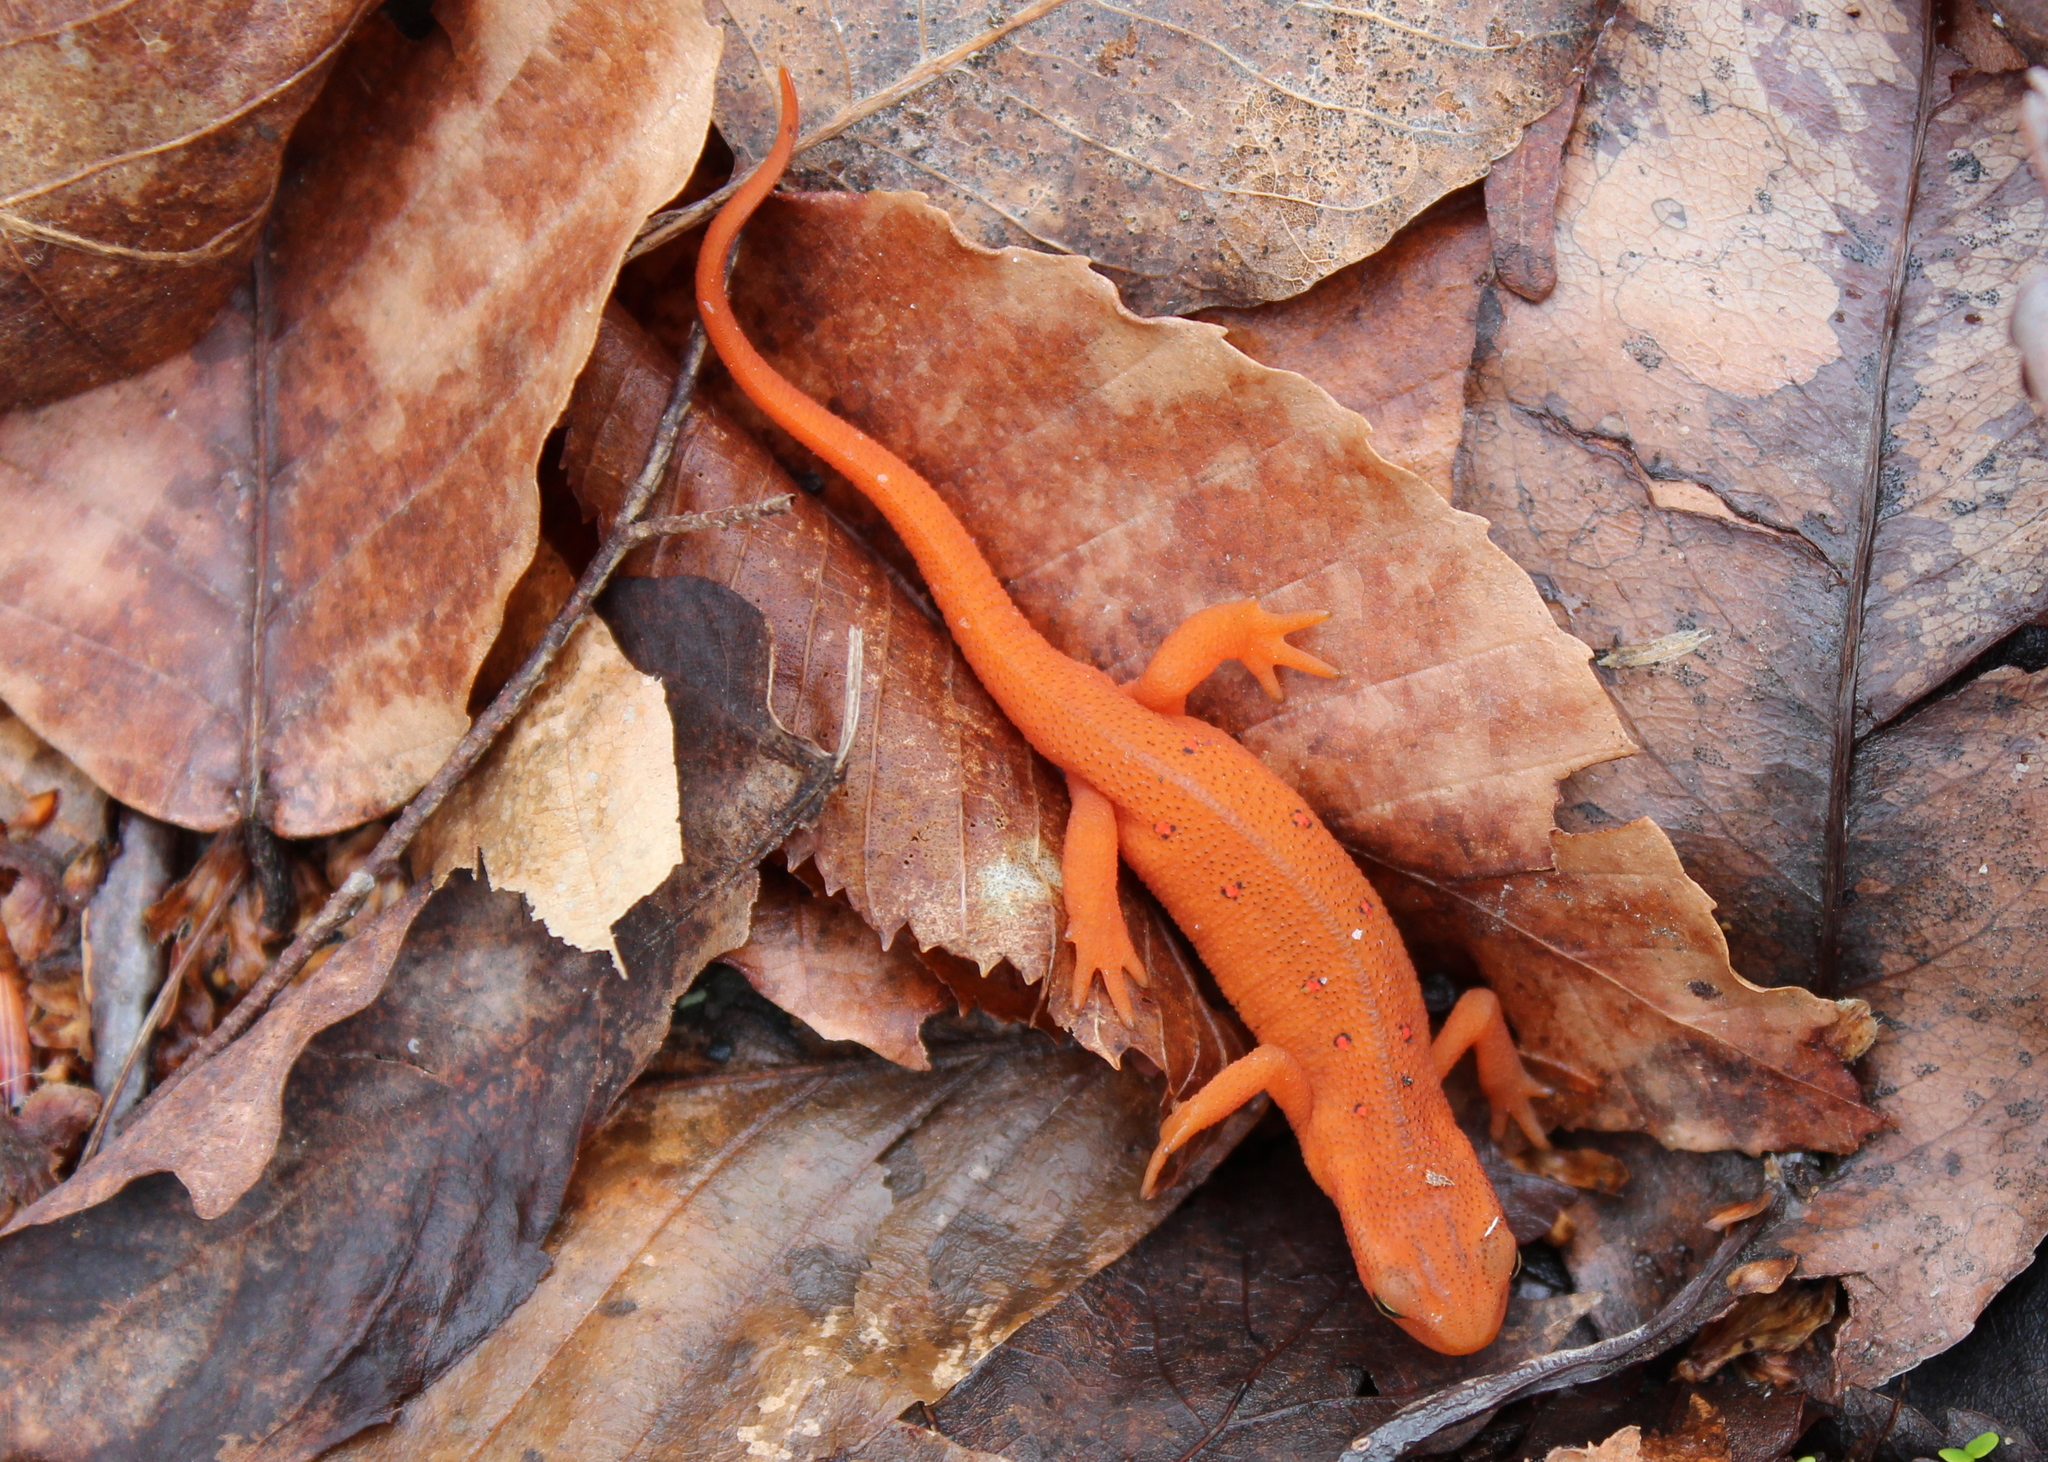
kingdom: Animalia
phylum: Chordata
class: Amphibia
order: Caudata
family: Salamandridae
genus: Notophthalmus
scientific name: Notophthalmus viridescens
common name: Eastern newt
